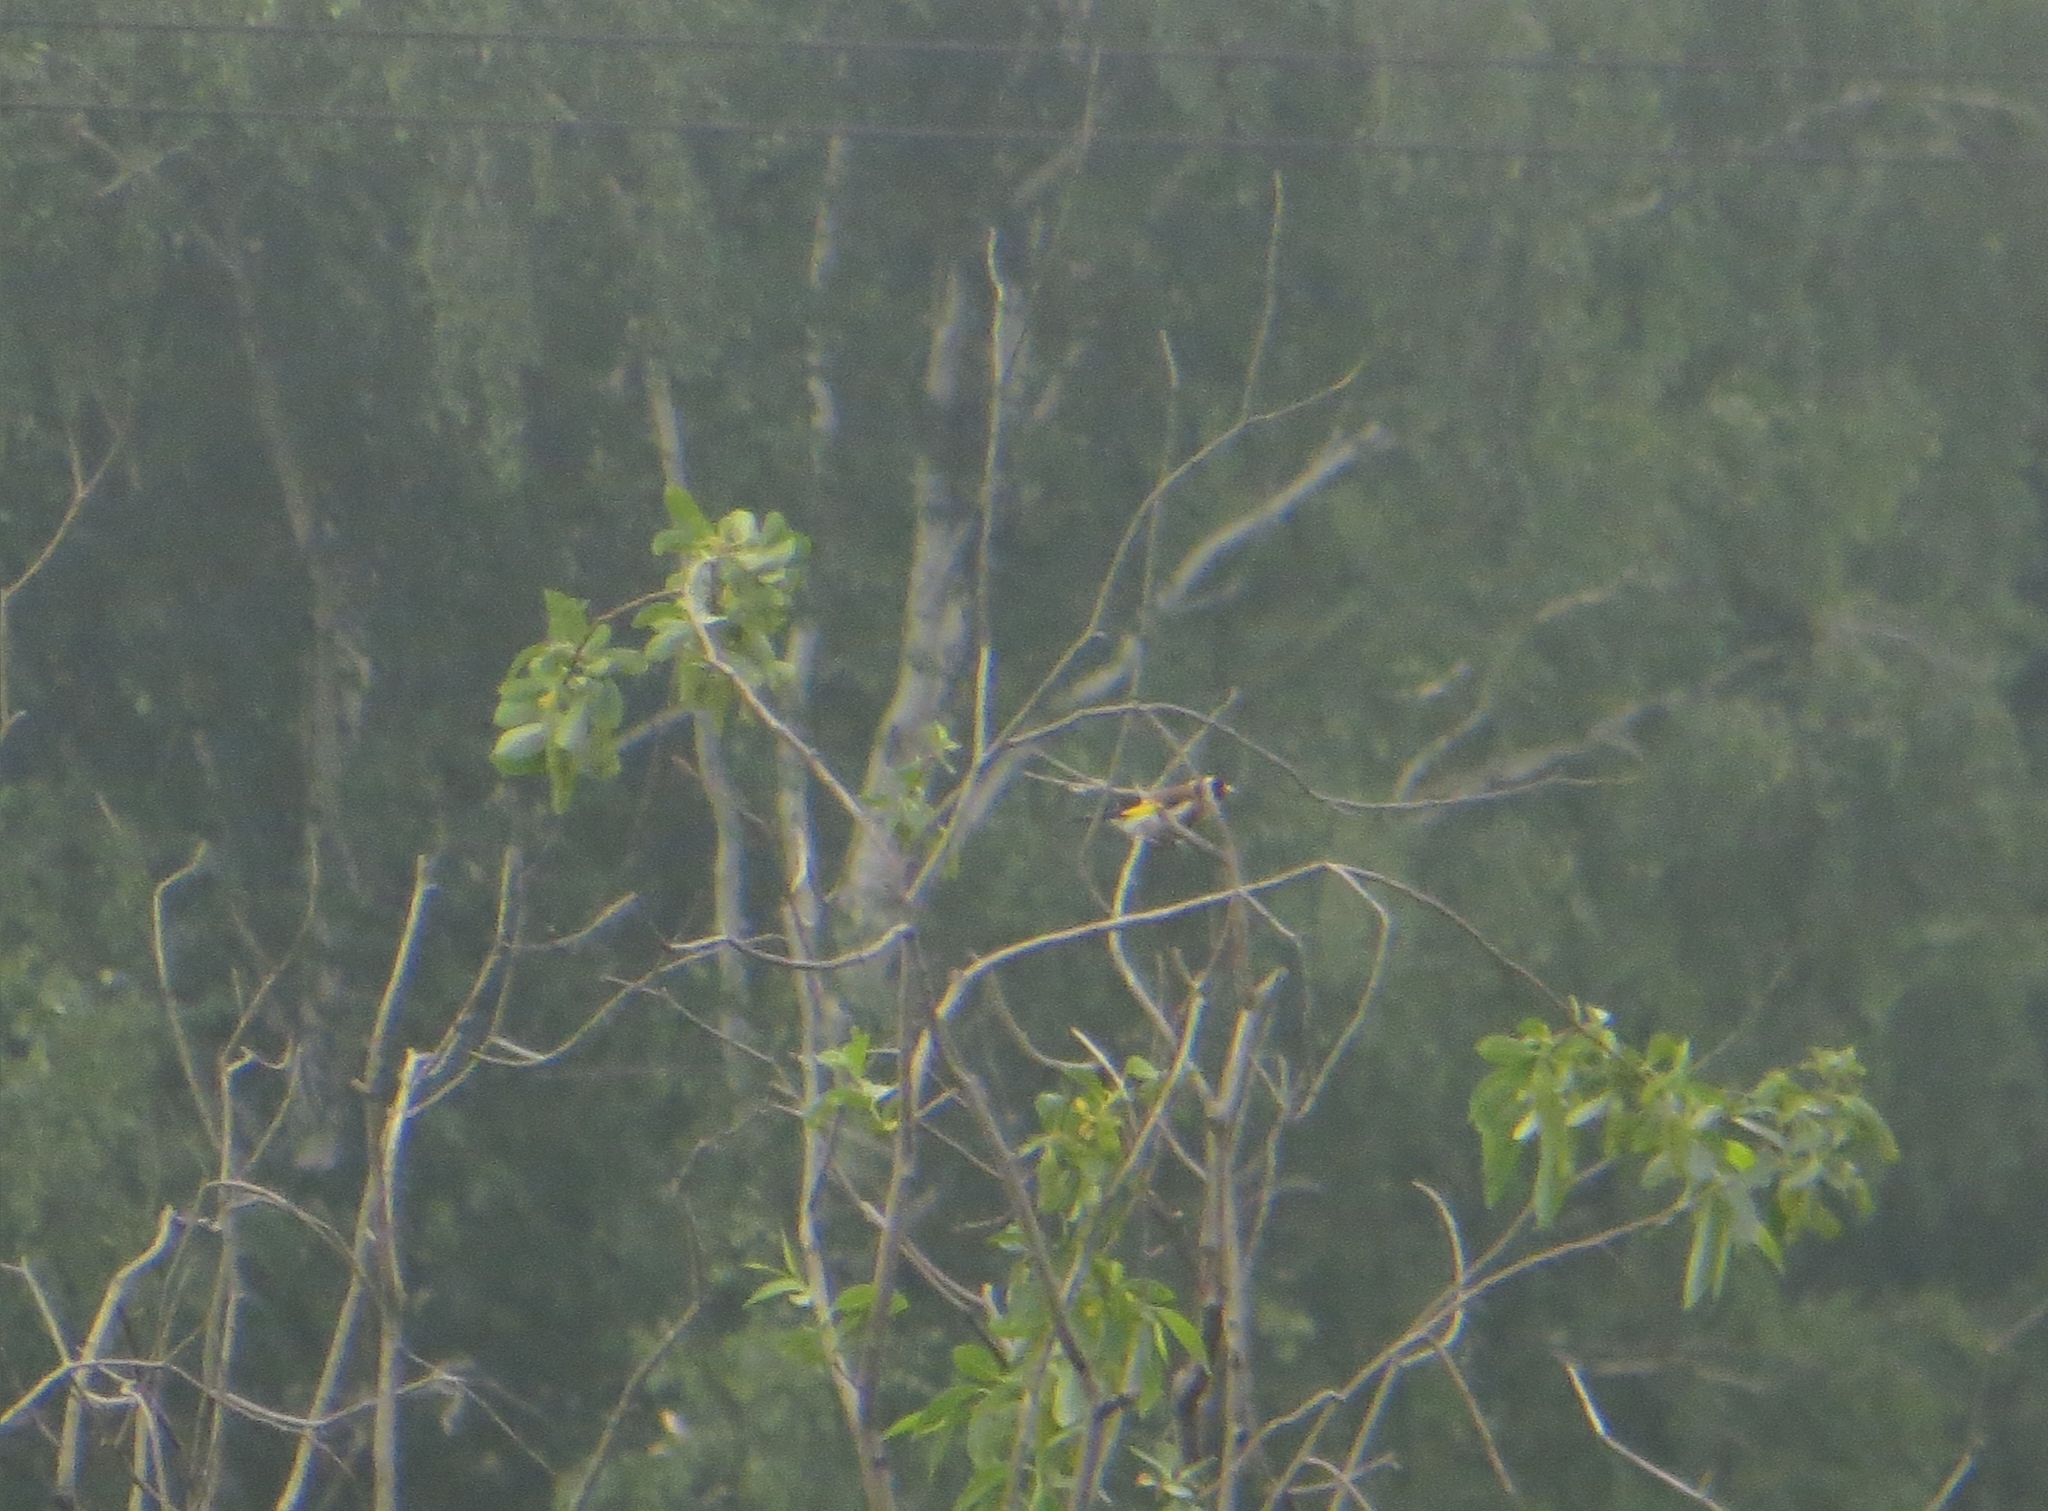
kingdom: Animalia
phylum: Chordata
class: Aves
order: Passeriformes
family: Fringillidae
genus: Carduelis
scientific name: Carduelis carduelis
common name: European goldfinch
